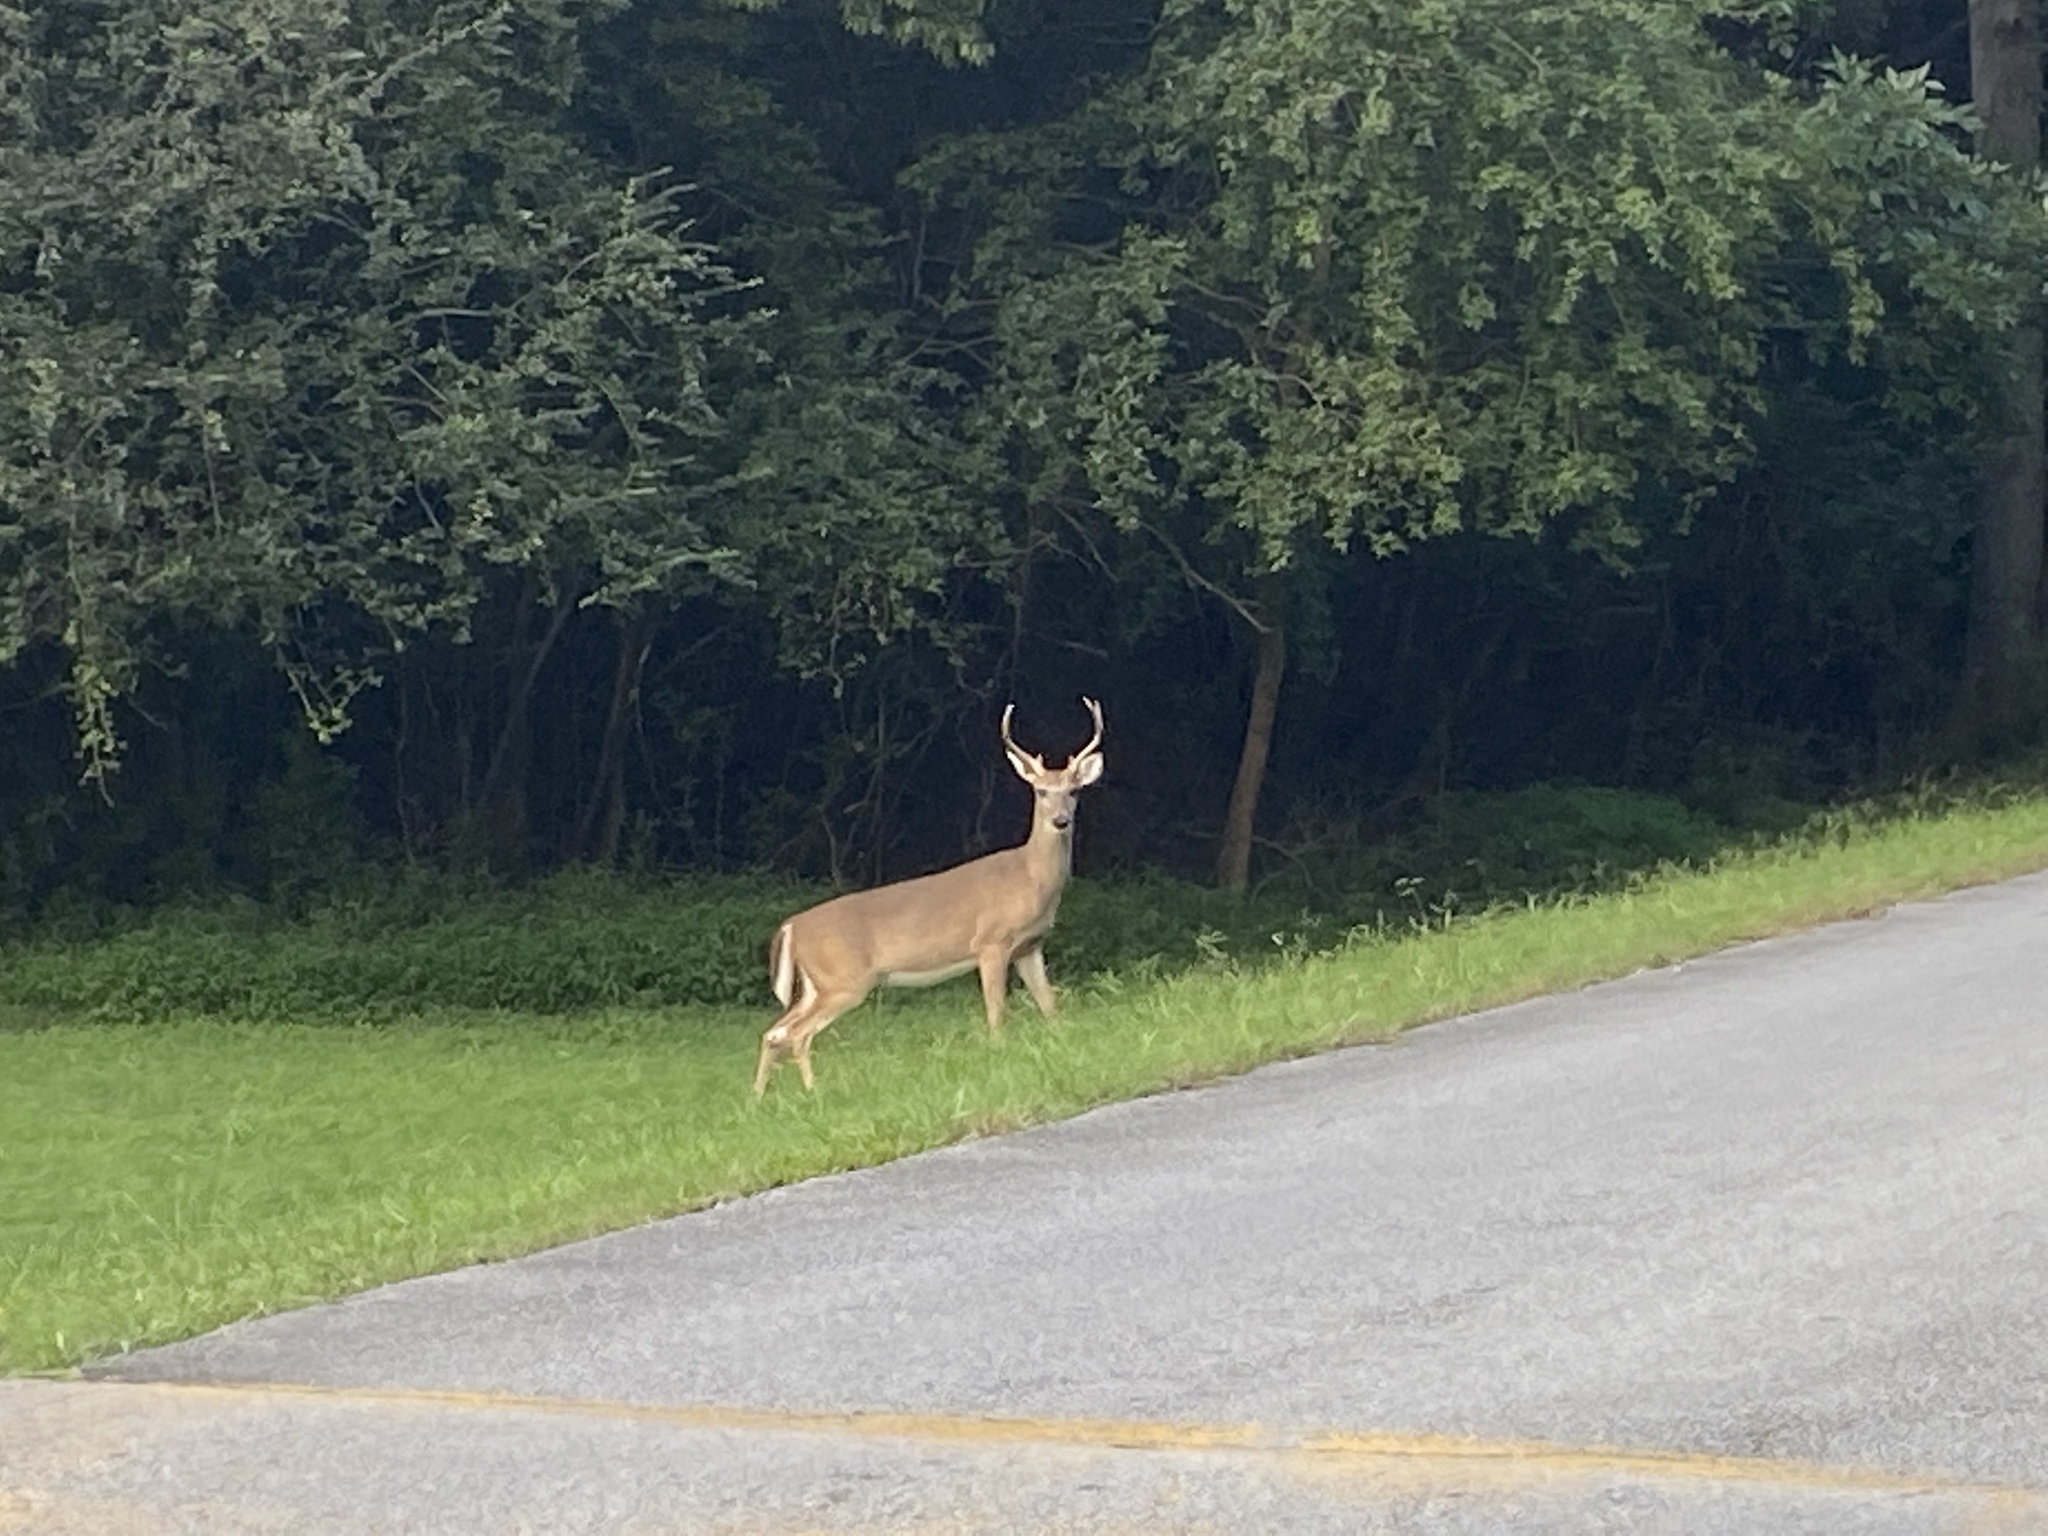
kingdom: Animalia
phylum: Chordata
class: Mammalia
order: Artiodactyla
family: Cervidae
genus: Odocoileus
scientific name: Odocoileus virginianus
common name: White-tailed deer
